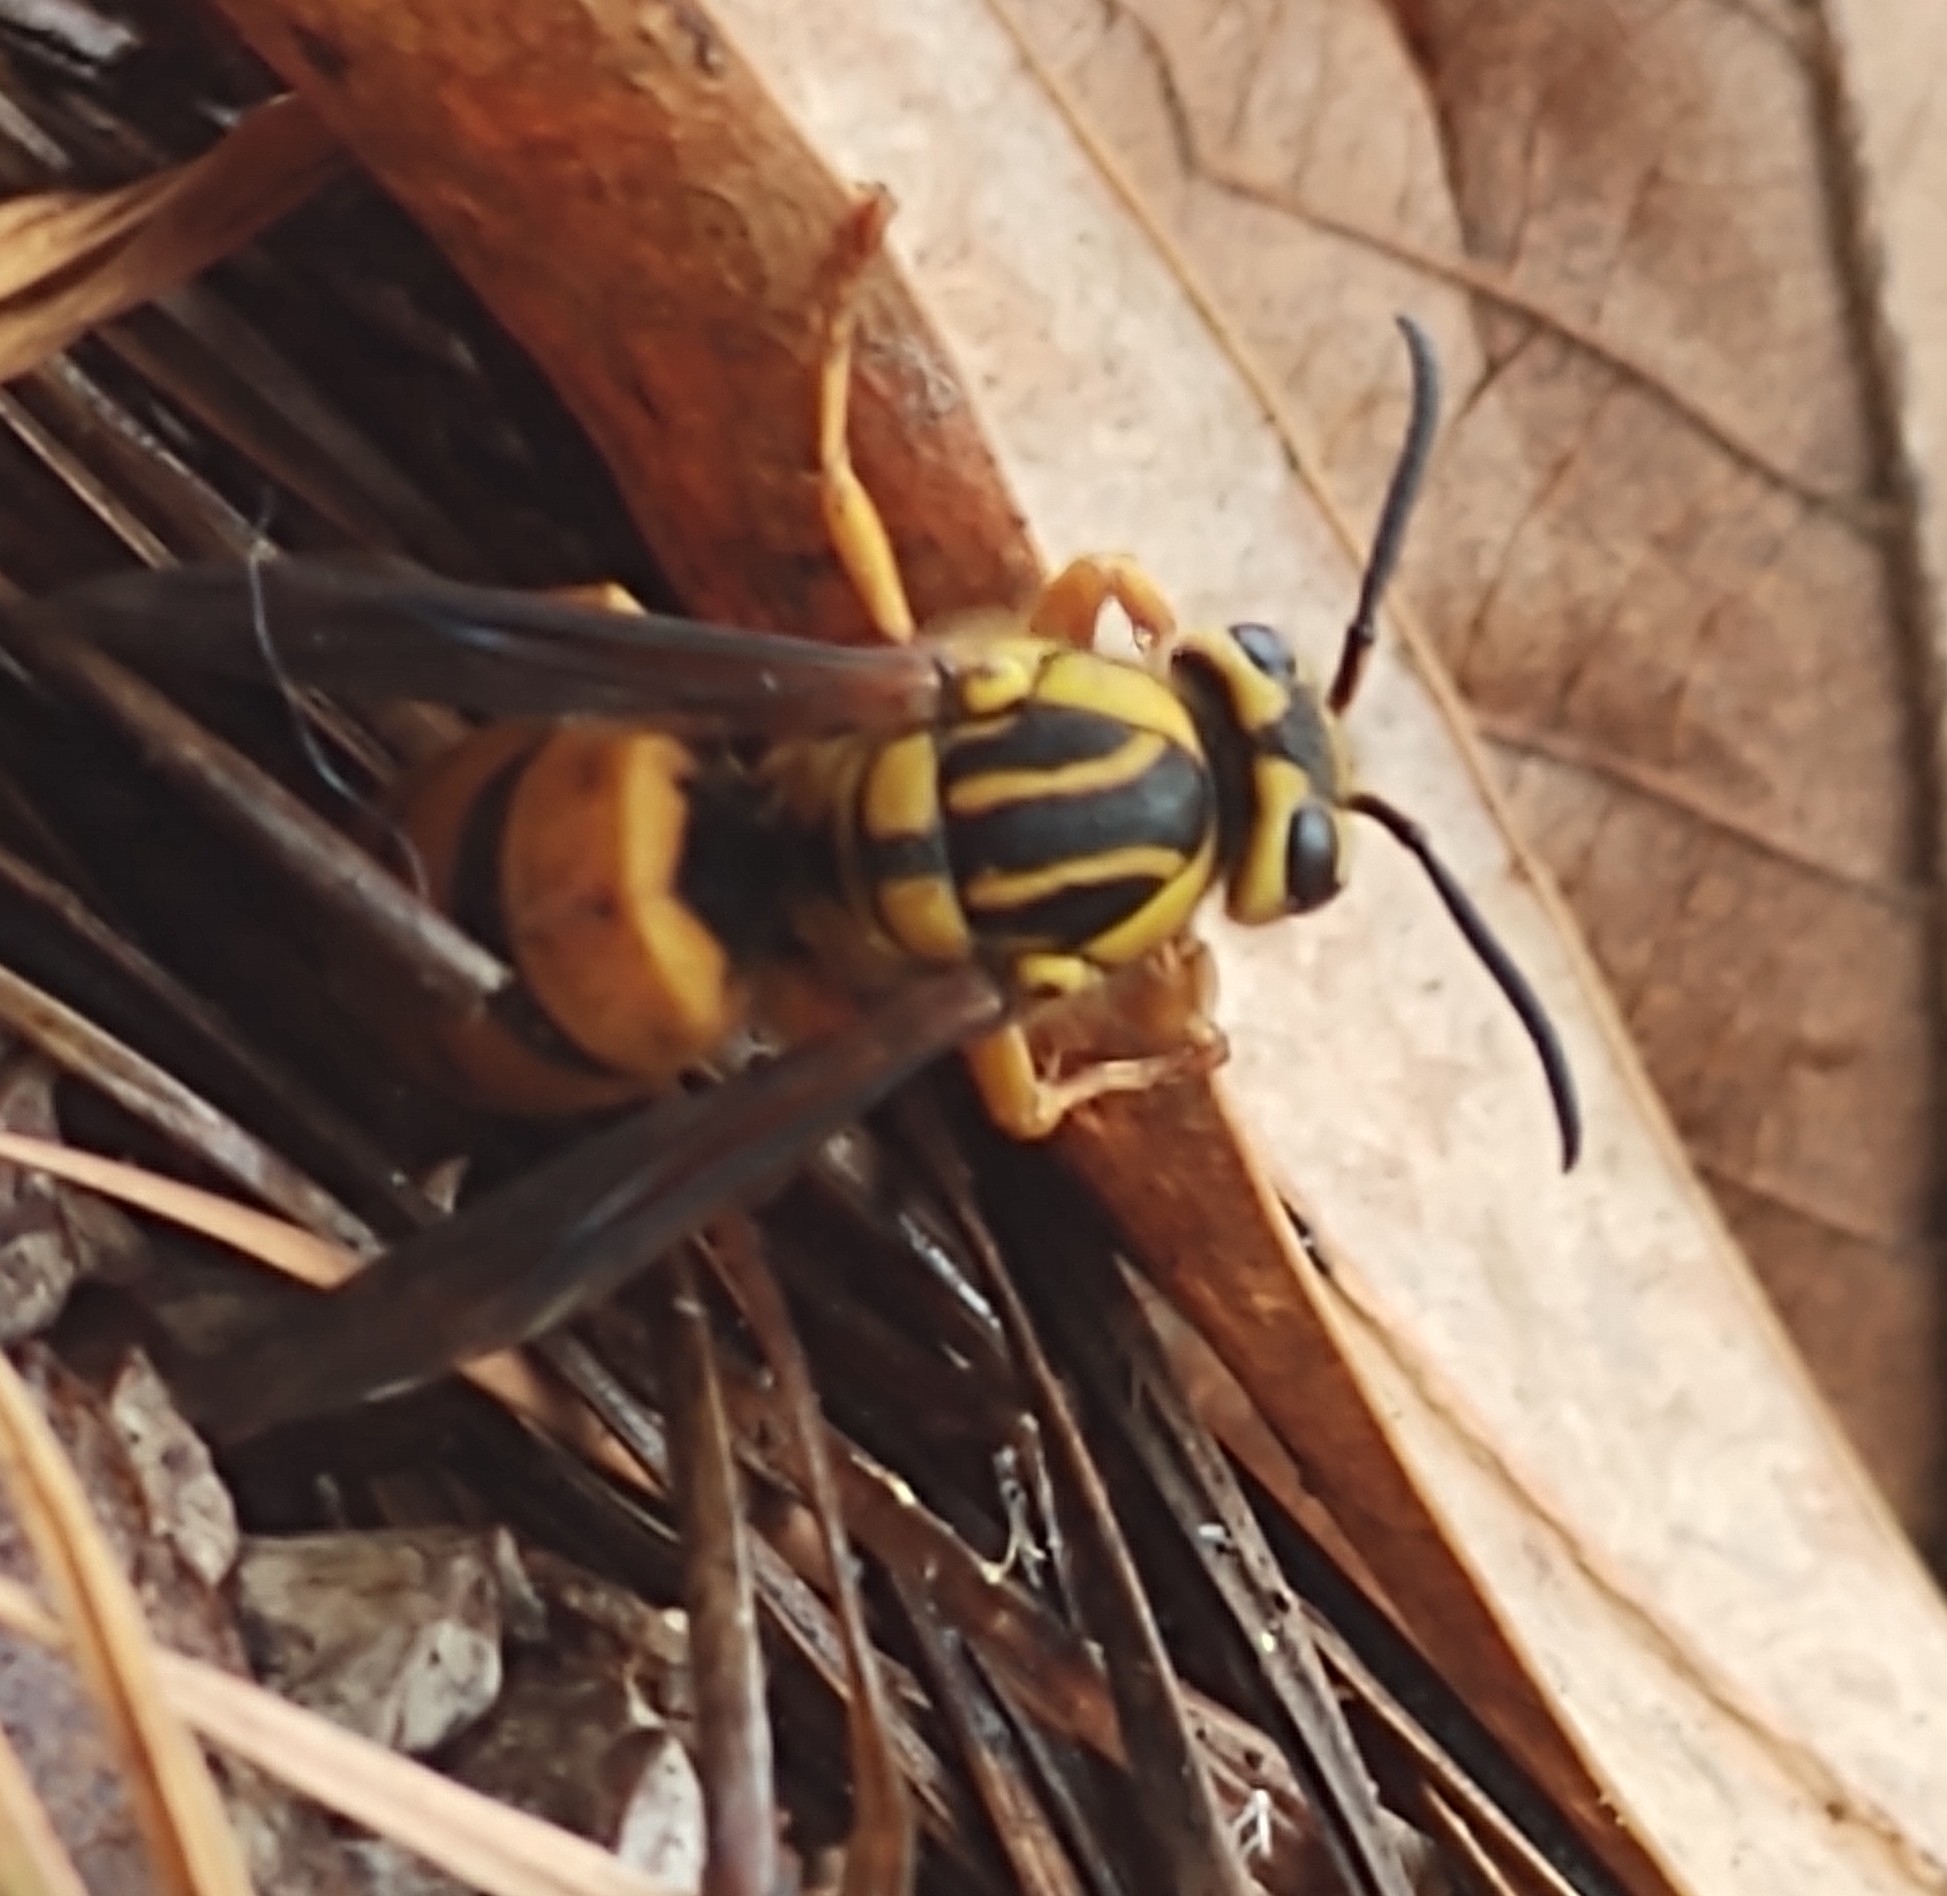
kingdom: Animalia
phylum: Arthropoda
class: Insecta
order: Hymenoptera
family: Vespidae
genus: Vespula
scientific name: Vespula squamosa
